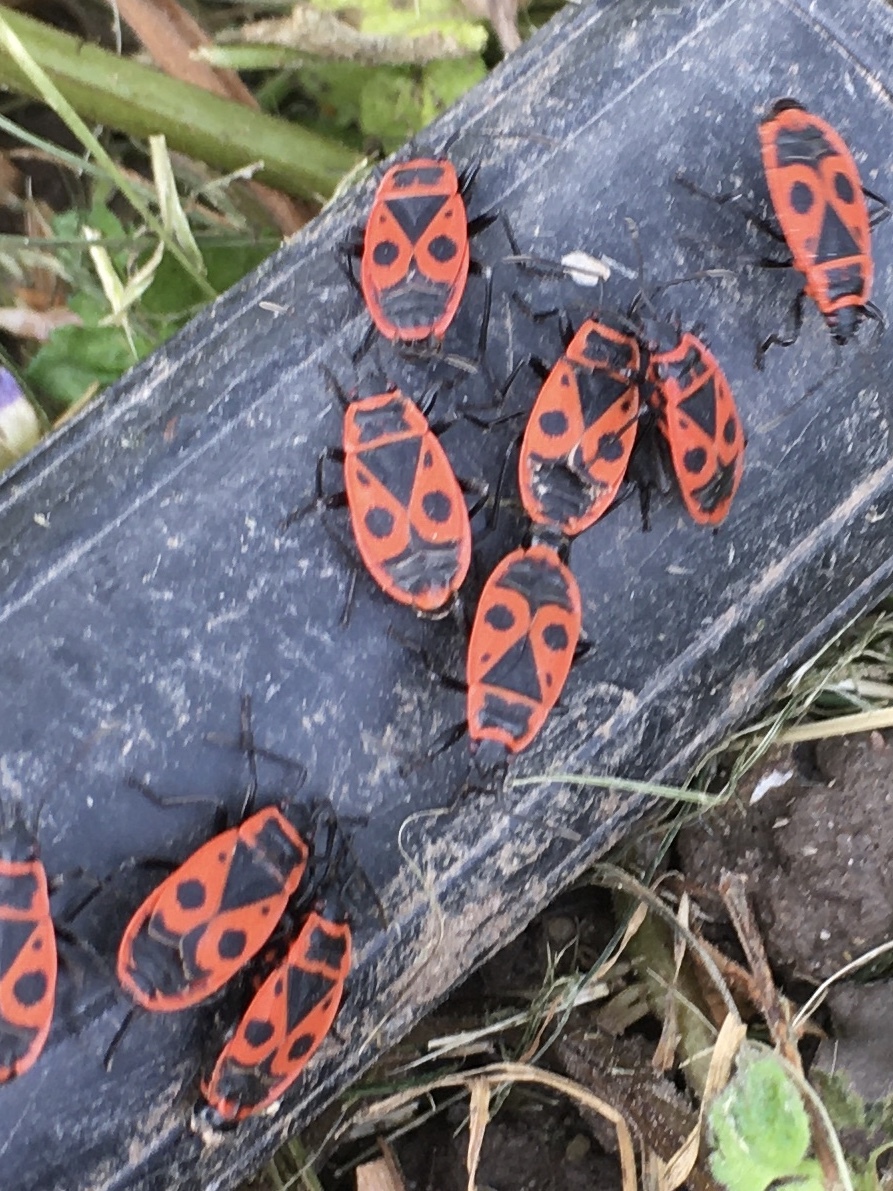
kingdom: Animalia
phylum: Arthropoda
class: Insecta
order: Hemiptera
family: Pyrrhocoridae
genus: Pyrrhocoris
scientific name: Pyrrhocoris apterus
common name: Firebug
